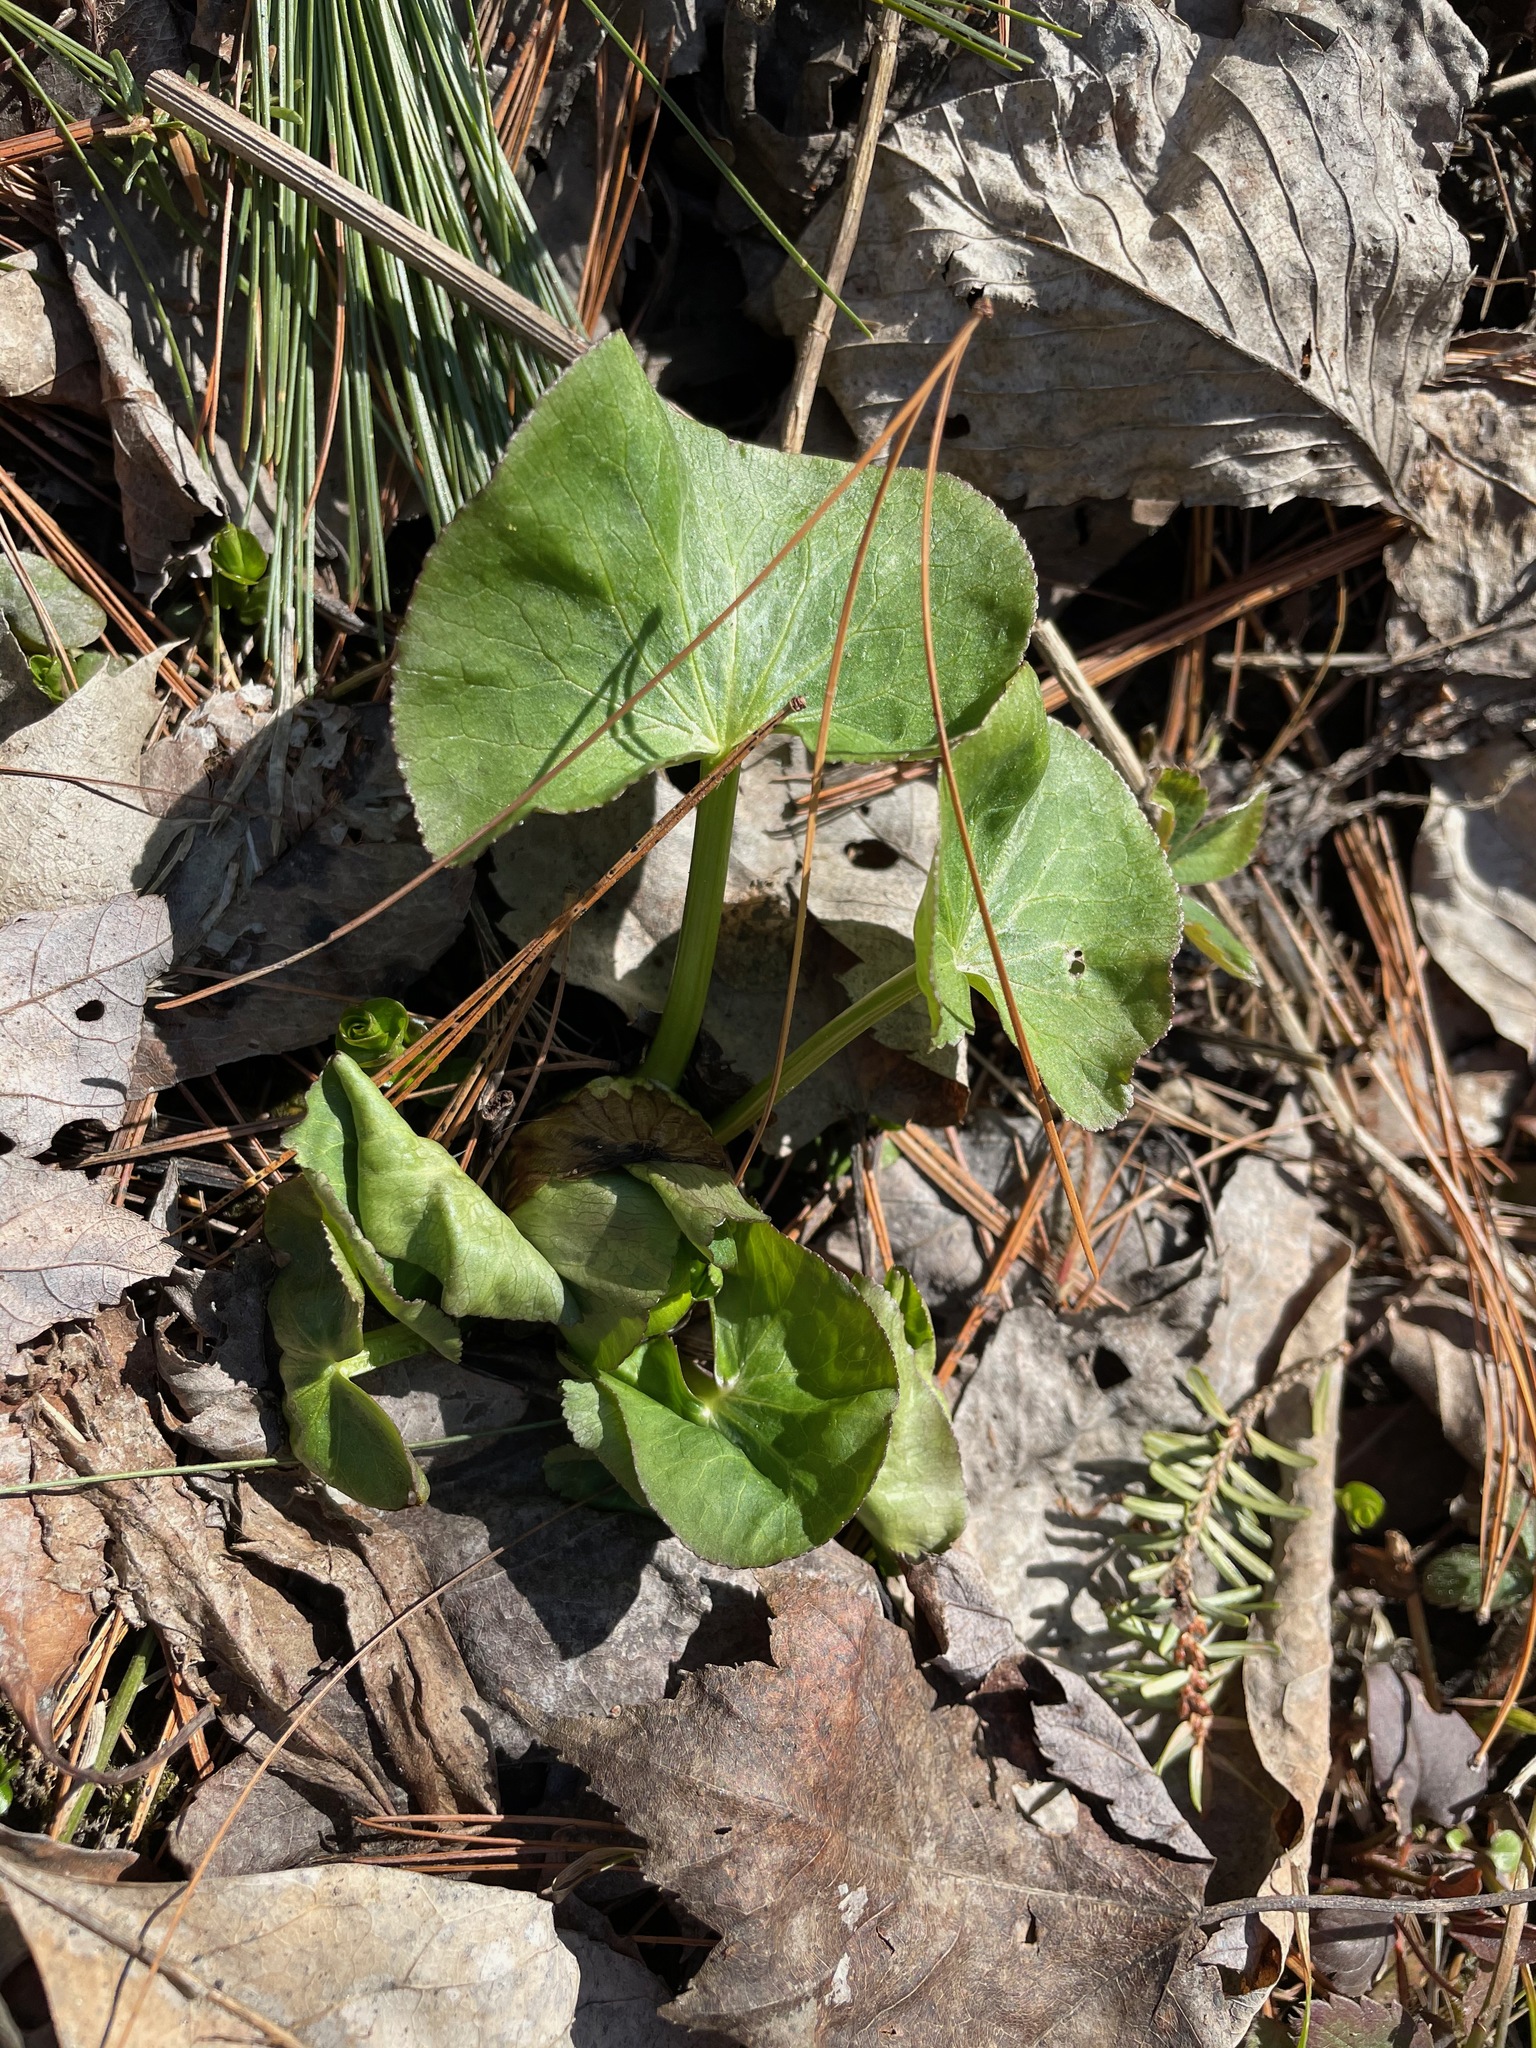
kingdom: Plantae
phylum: Tracheophyta
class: Magnoliopsida
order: Ranunculales
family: Ranunculaceae
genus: Caltha
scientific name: Caltha palustris
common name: Marsh marigold
